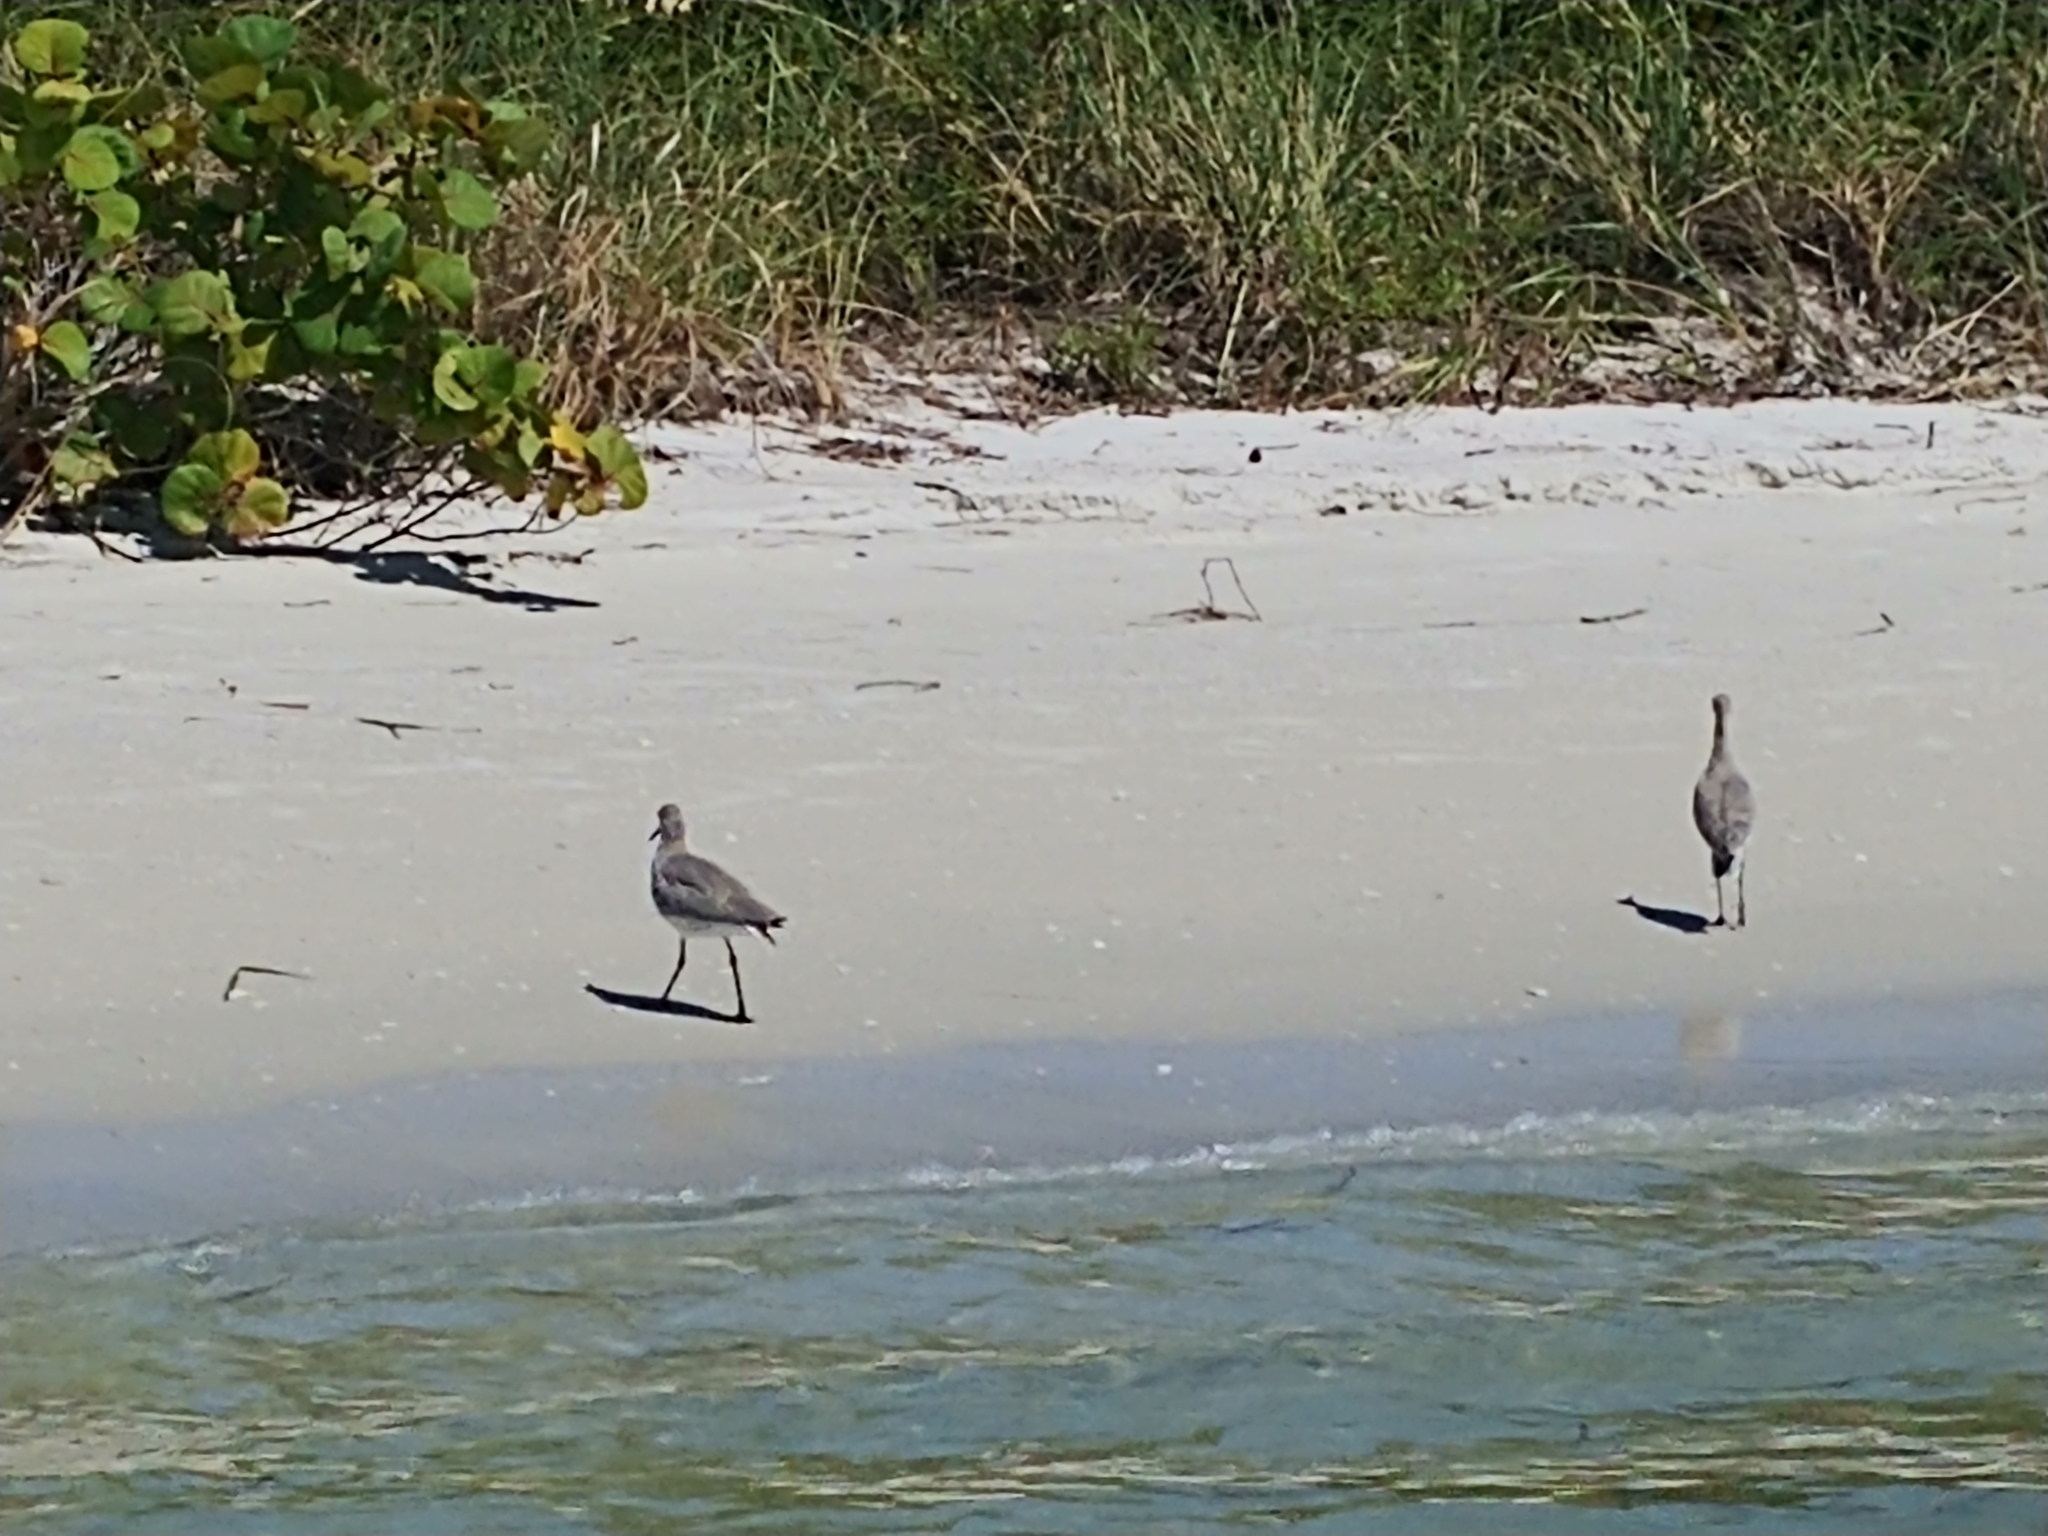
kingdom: Animalia
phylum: Chordata
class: Aves
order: Charadriiformes
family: Scolopacidae
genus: Tringa
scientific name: Tringa semipalmata
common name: Willet
